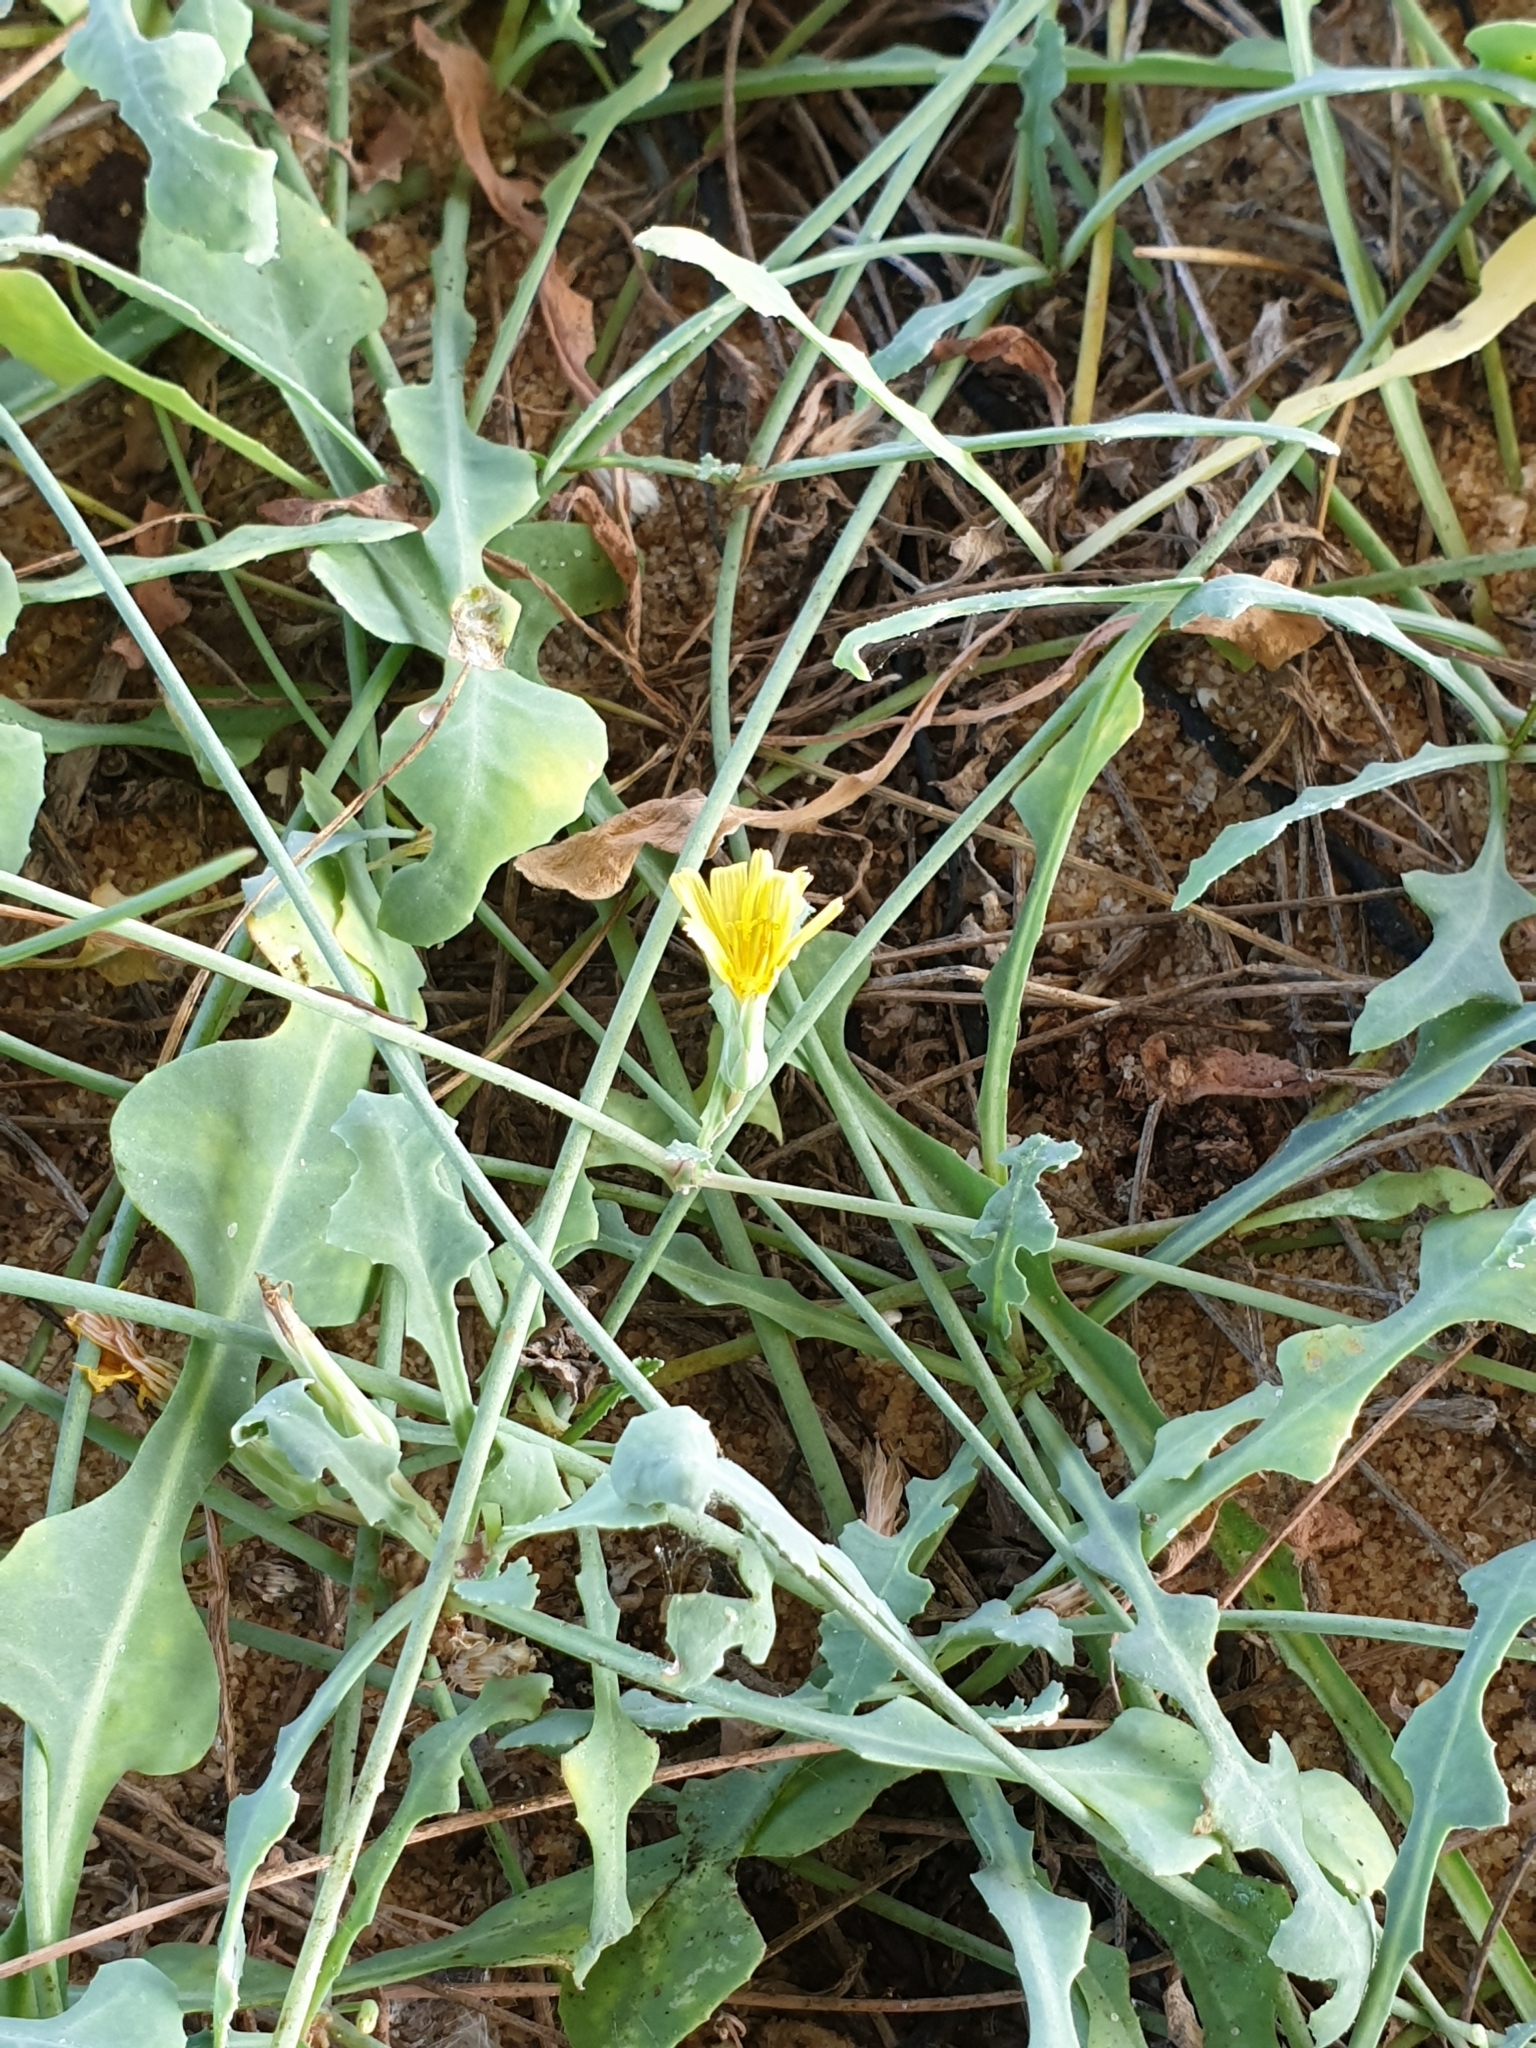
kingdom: Plantae
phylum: Tracheophyta
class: Magnoliopsida
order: Asterales
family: Asteraceae
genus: Launaea
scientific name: Launaea sarmentosa
